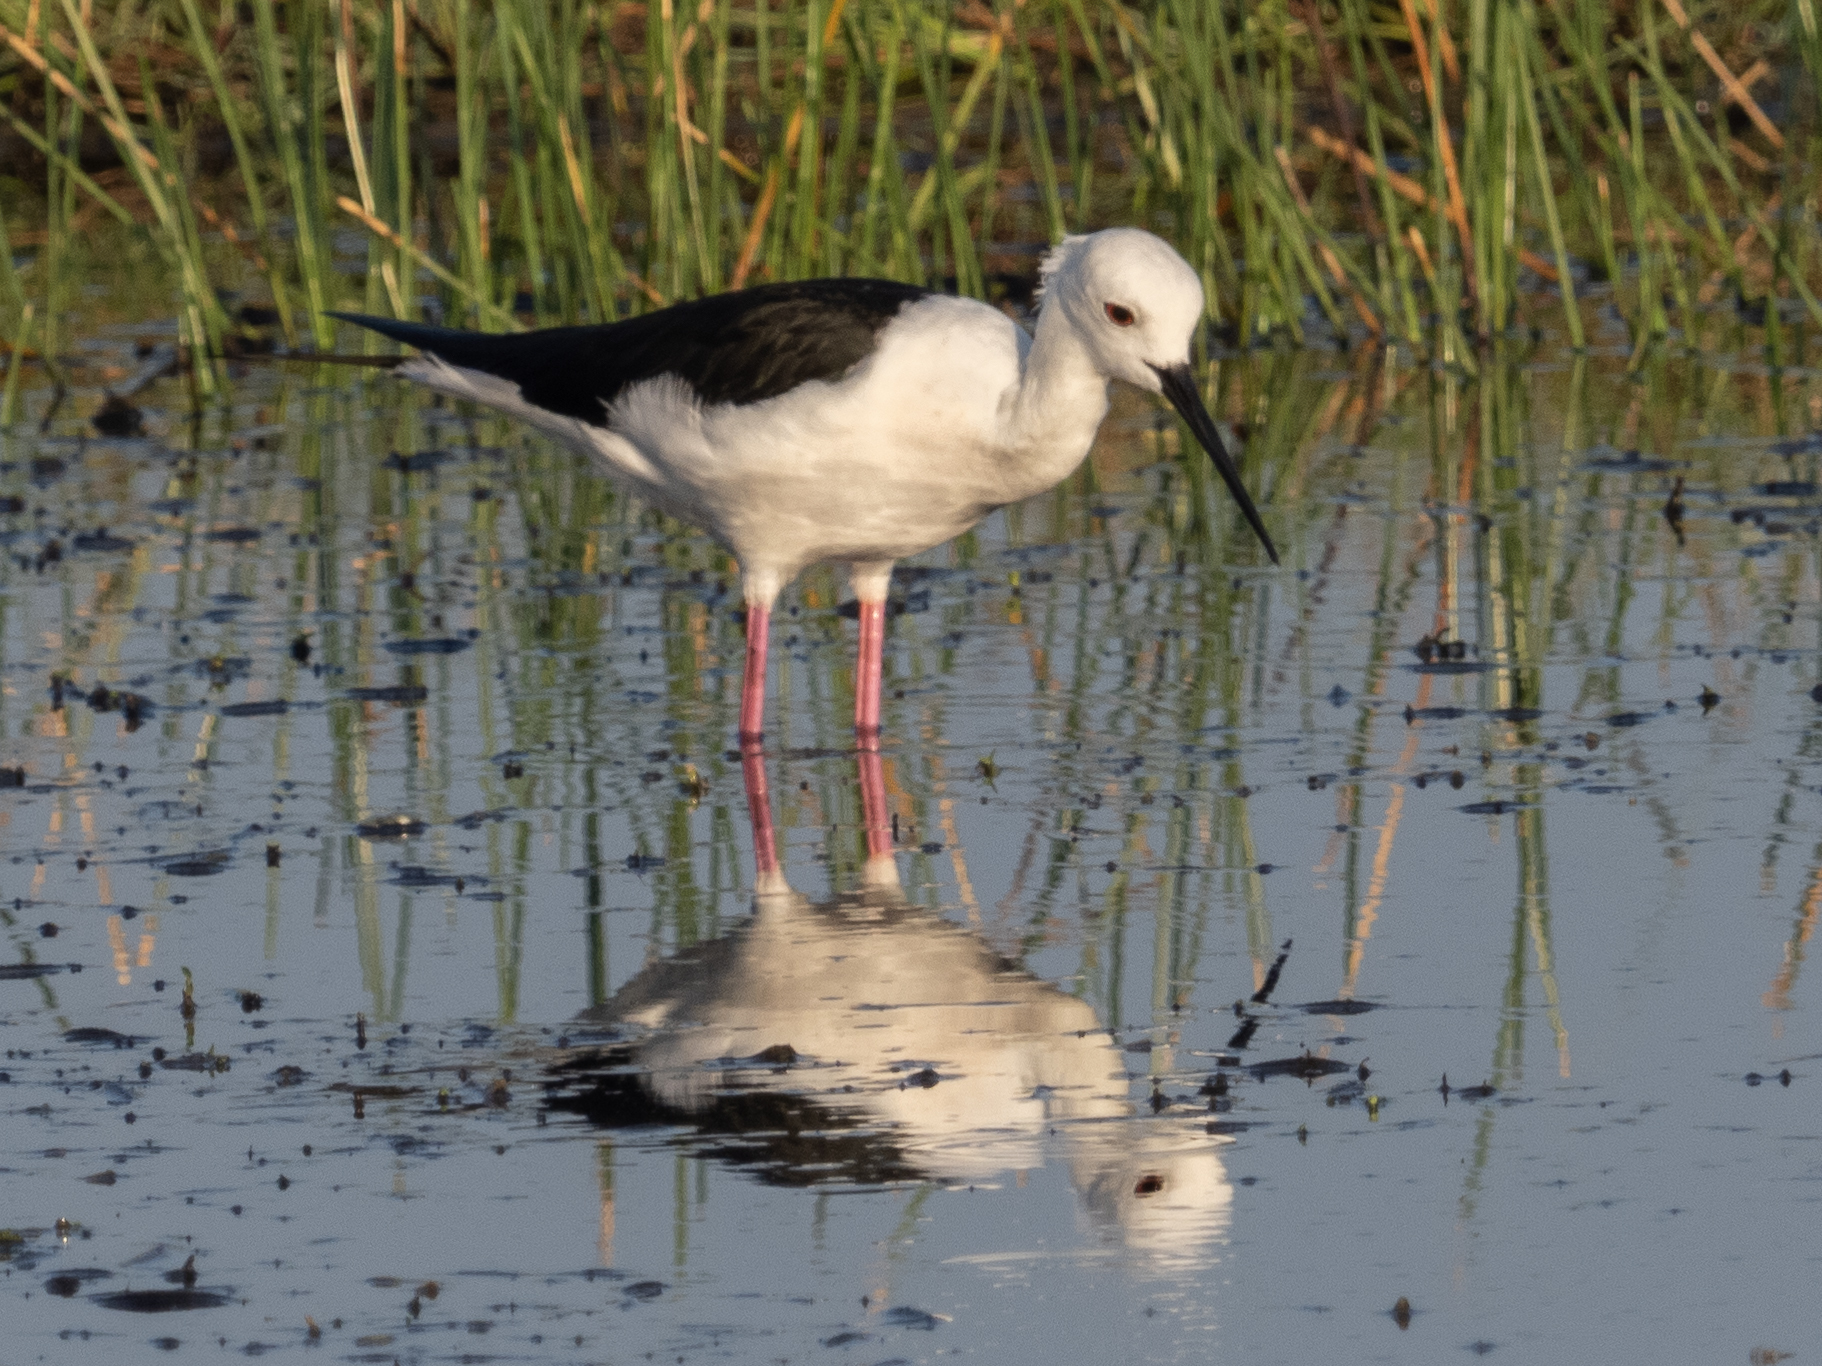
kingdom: Animalia
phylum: Chordata
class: Aves
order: Charadriiformes
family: Recurvirostridae
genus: Himantopus
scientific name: Himantopus himantopus
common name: Black-winged stilt
